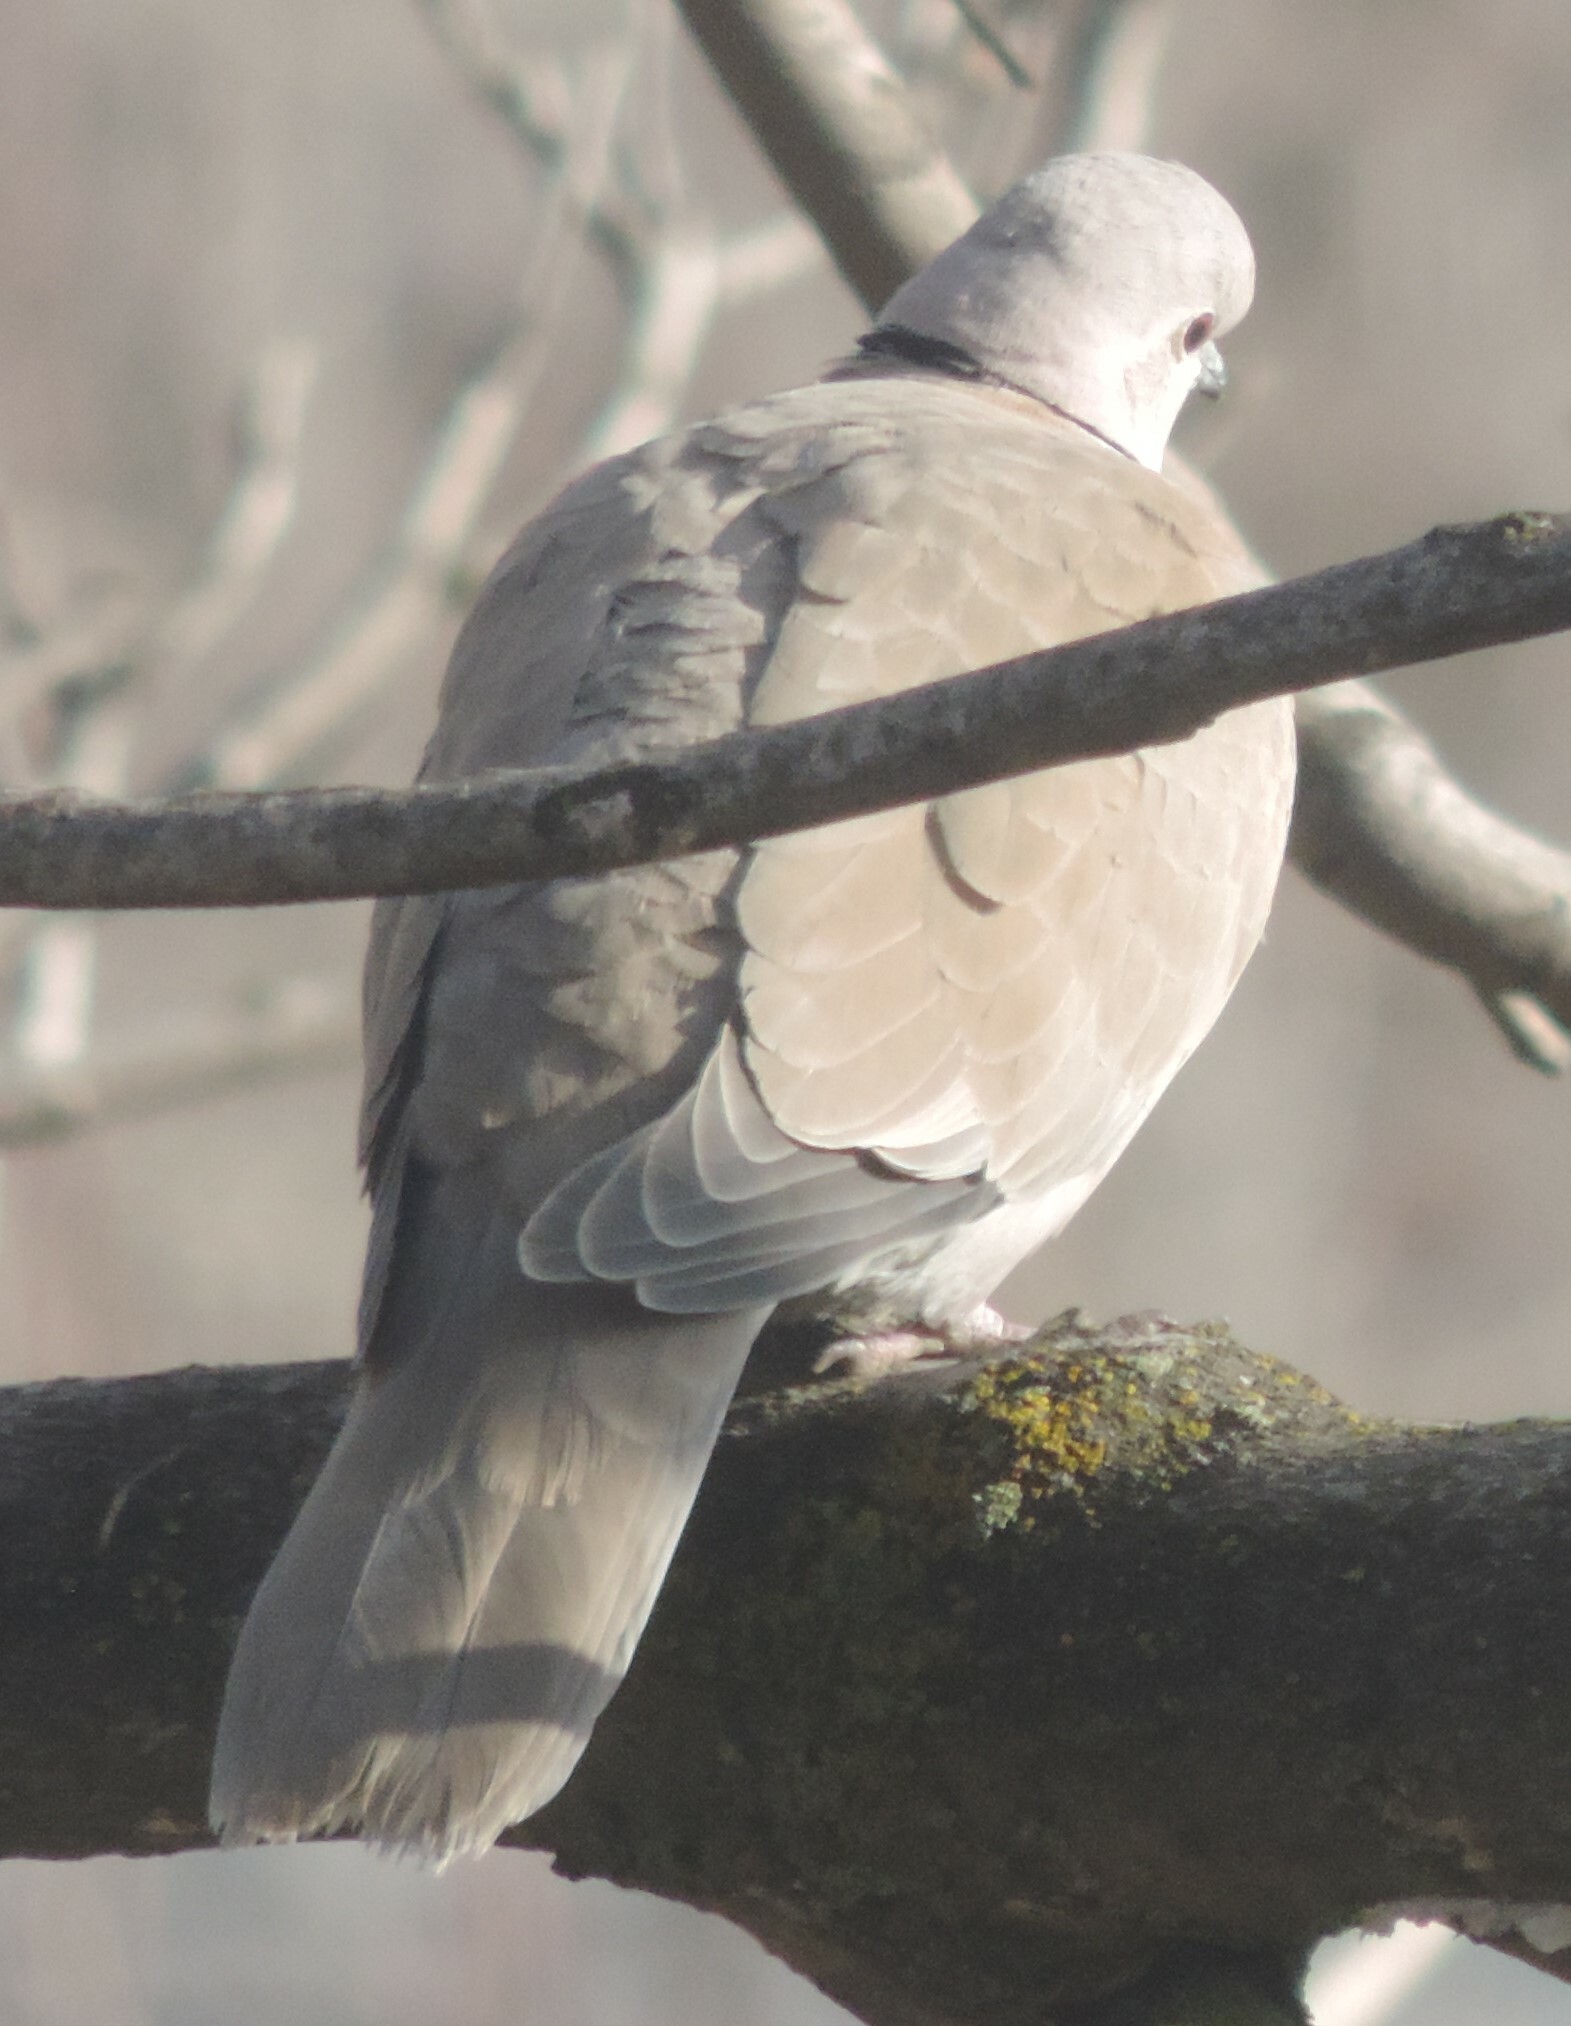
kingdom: Animalia
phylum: Chordata
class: Aves
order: Columbiformes
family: Columbidae
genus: Streptopelia
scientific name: Streptopelia decaocto
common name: Eurasian collared dove
